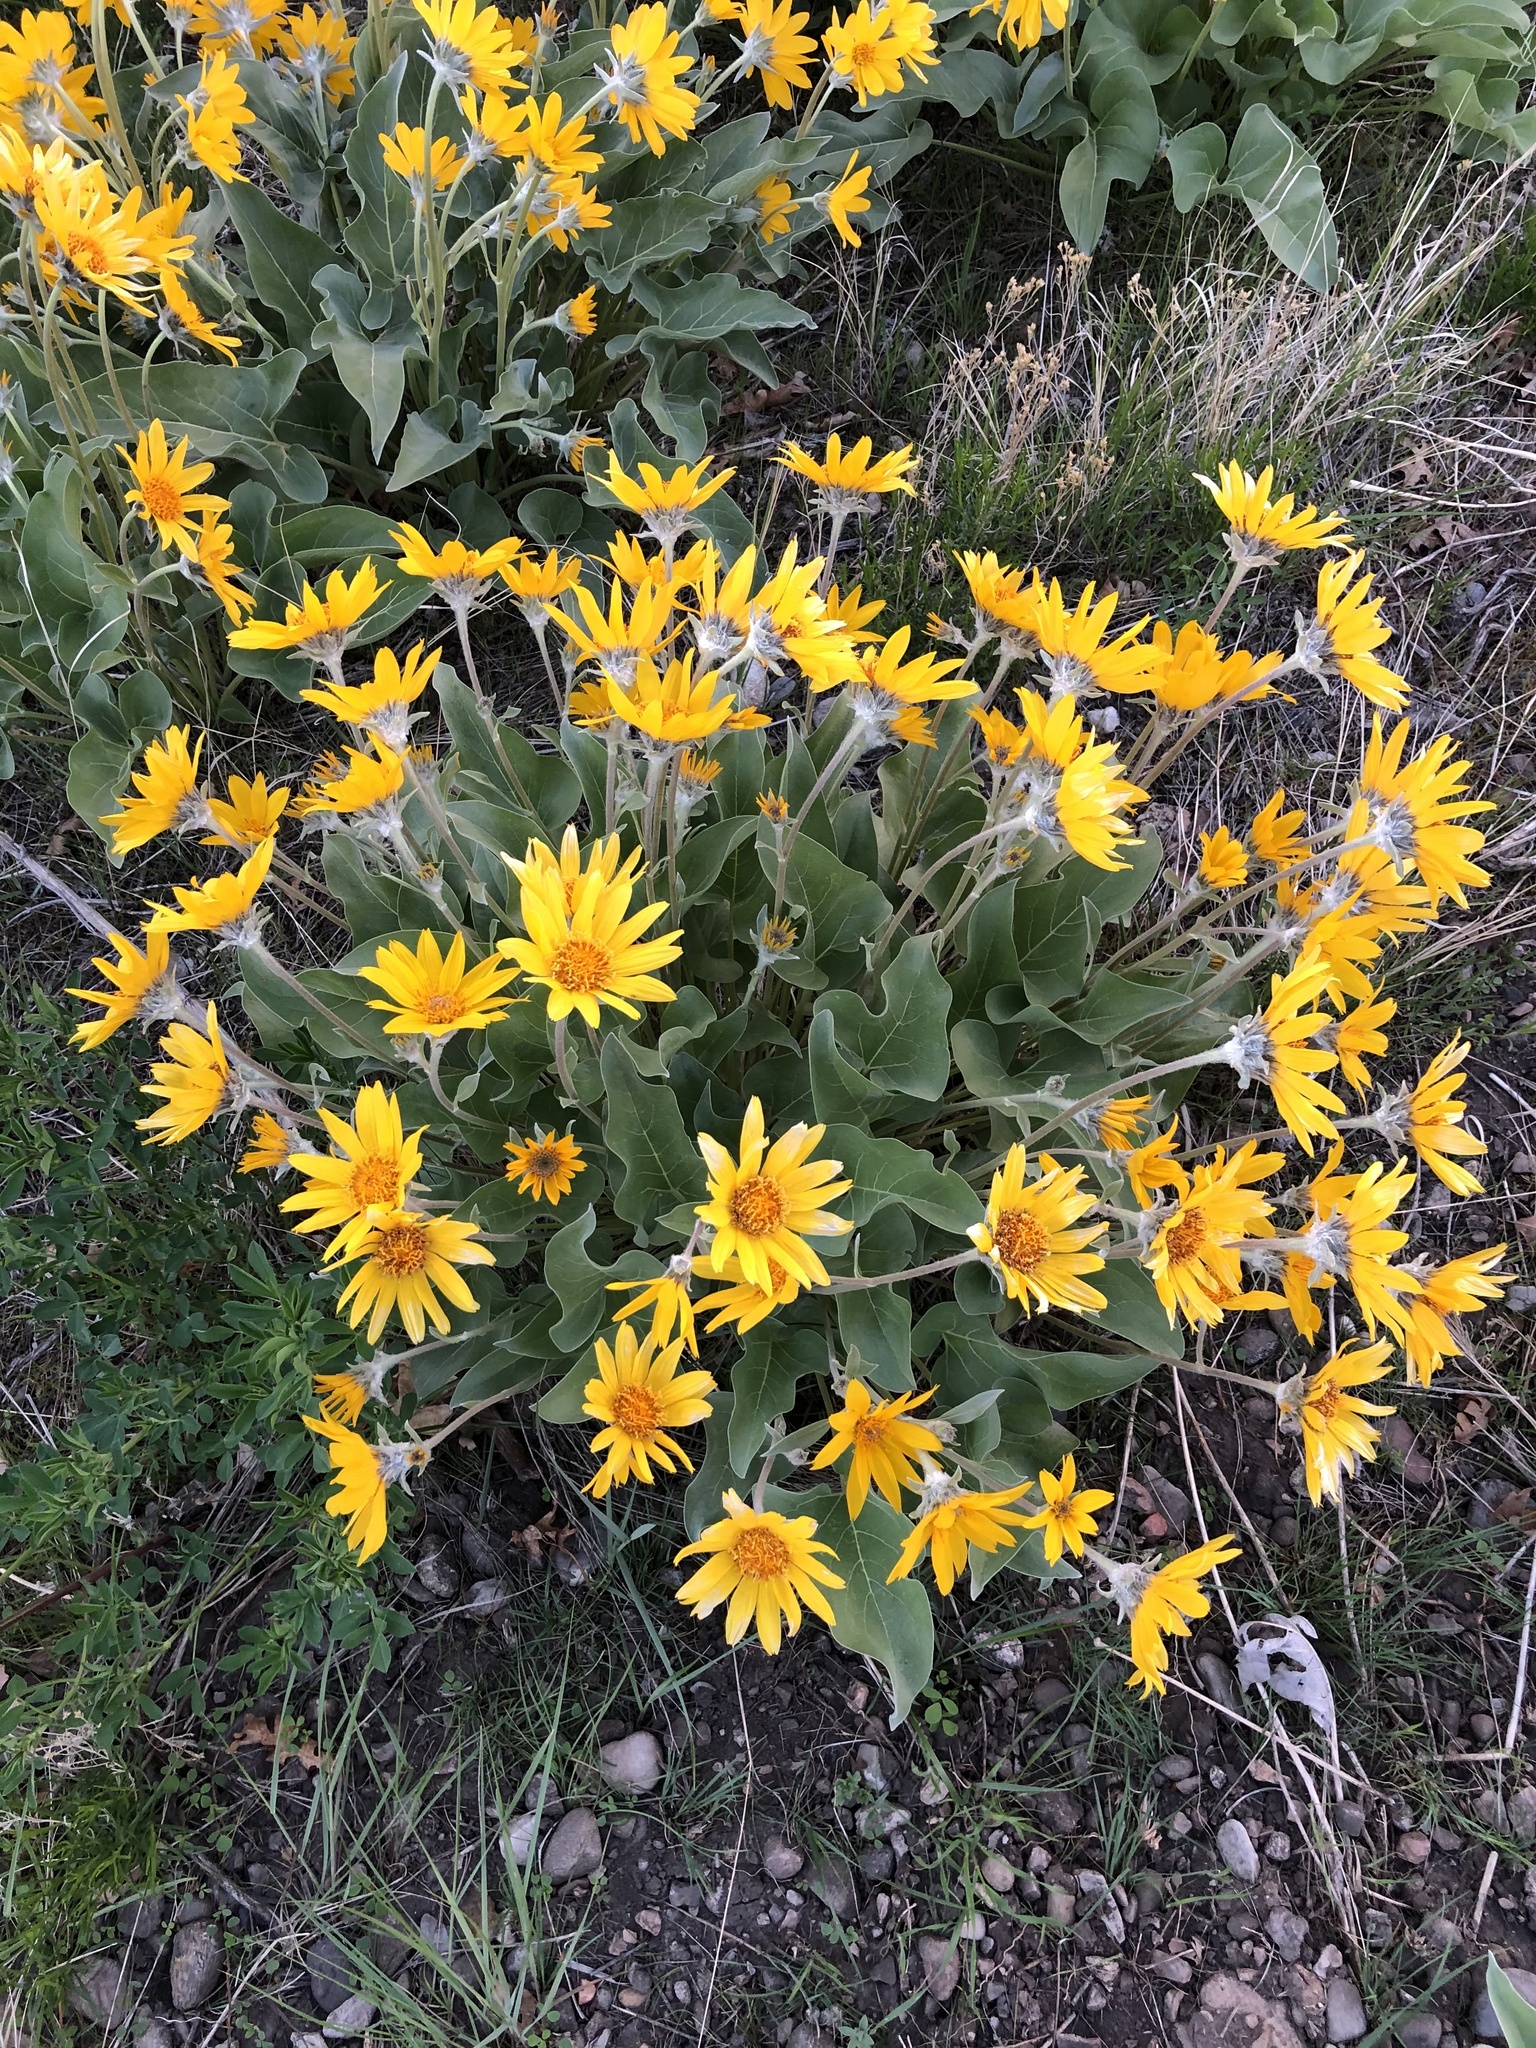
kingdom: Plantae
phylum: Tracheophyta
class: Magnoliopsida
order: Asterales
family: Asteraceae
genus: Wyethia
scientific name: Wyethia sagittata
